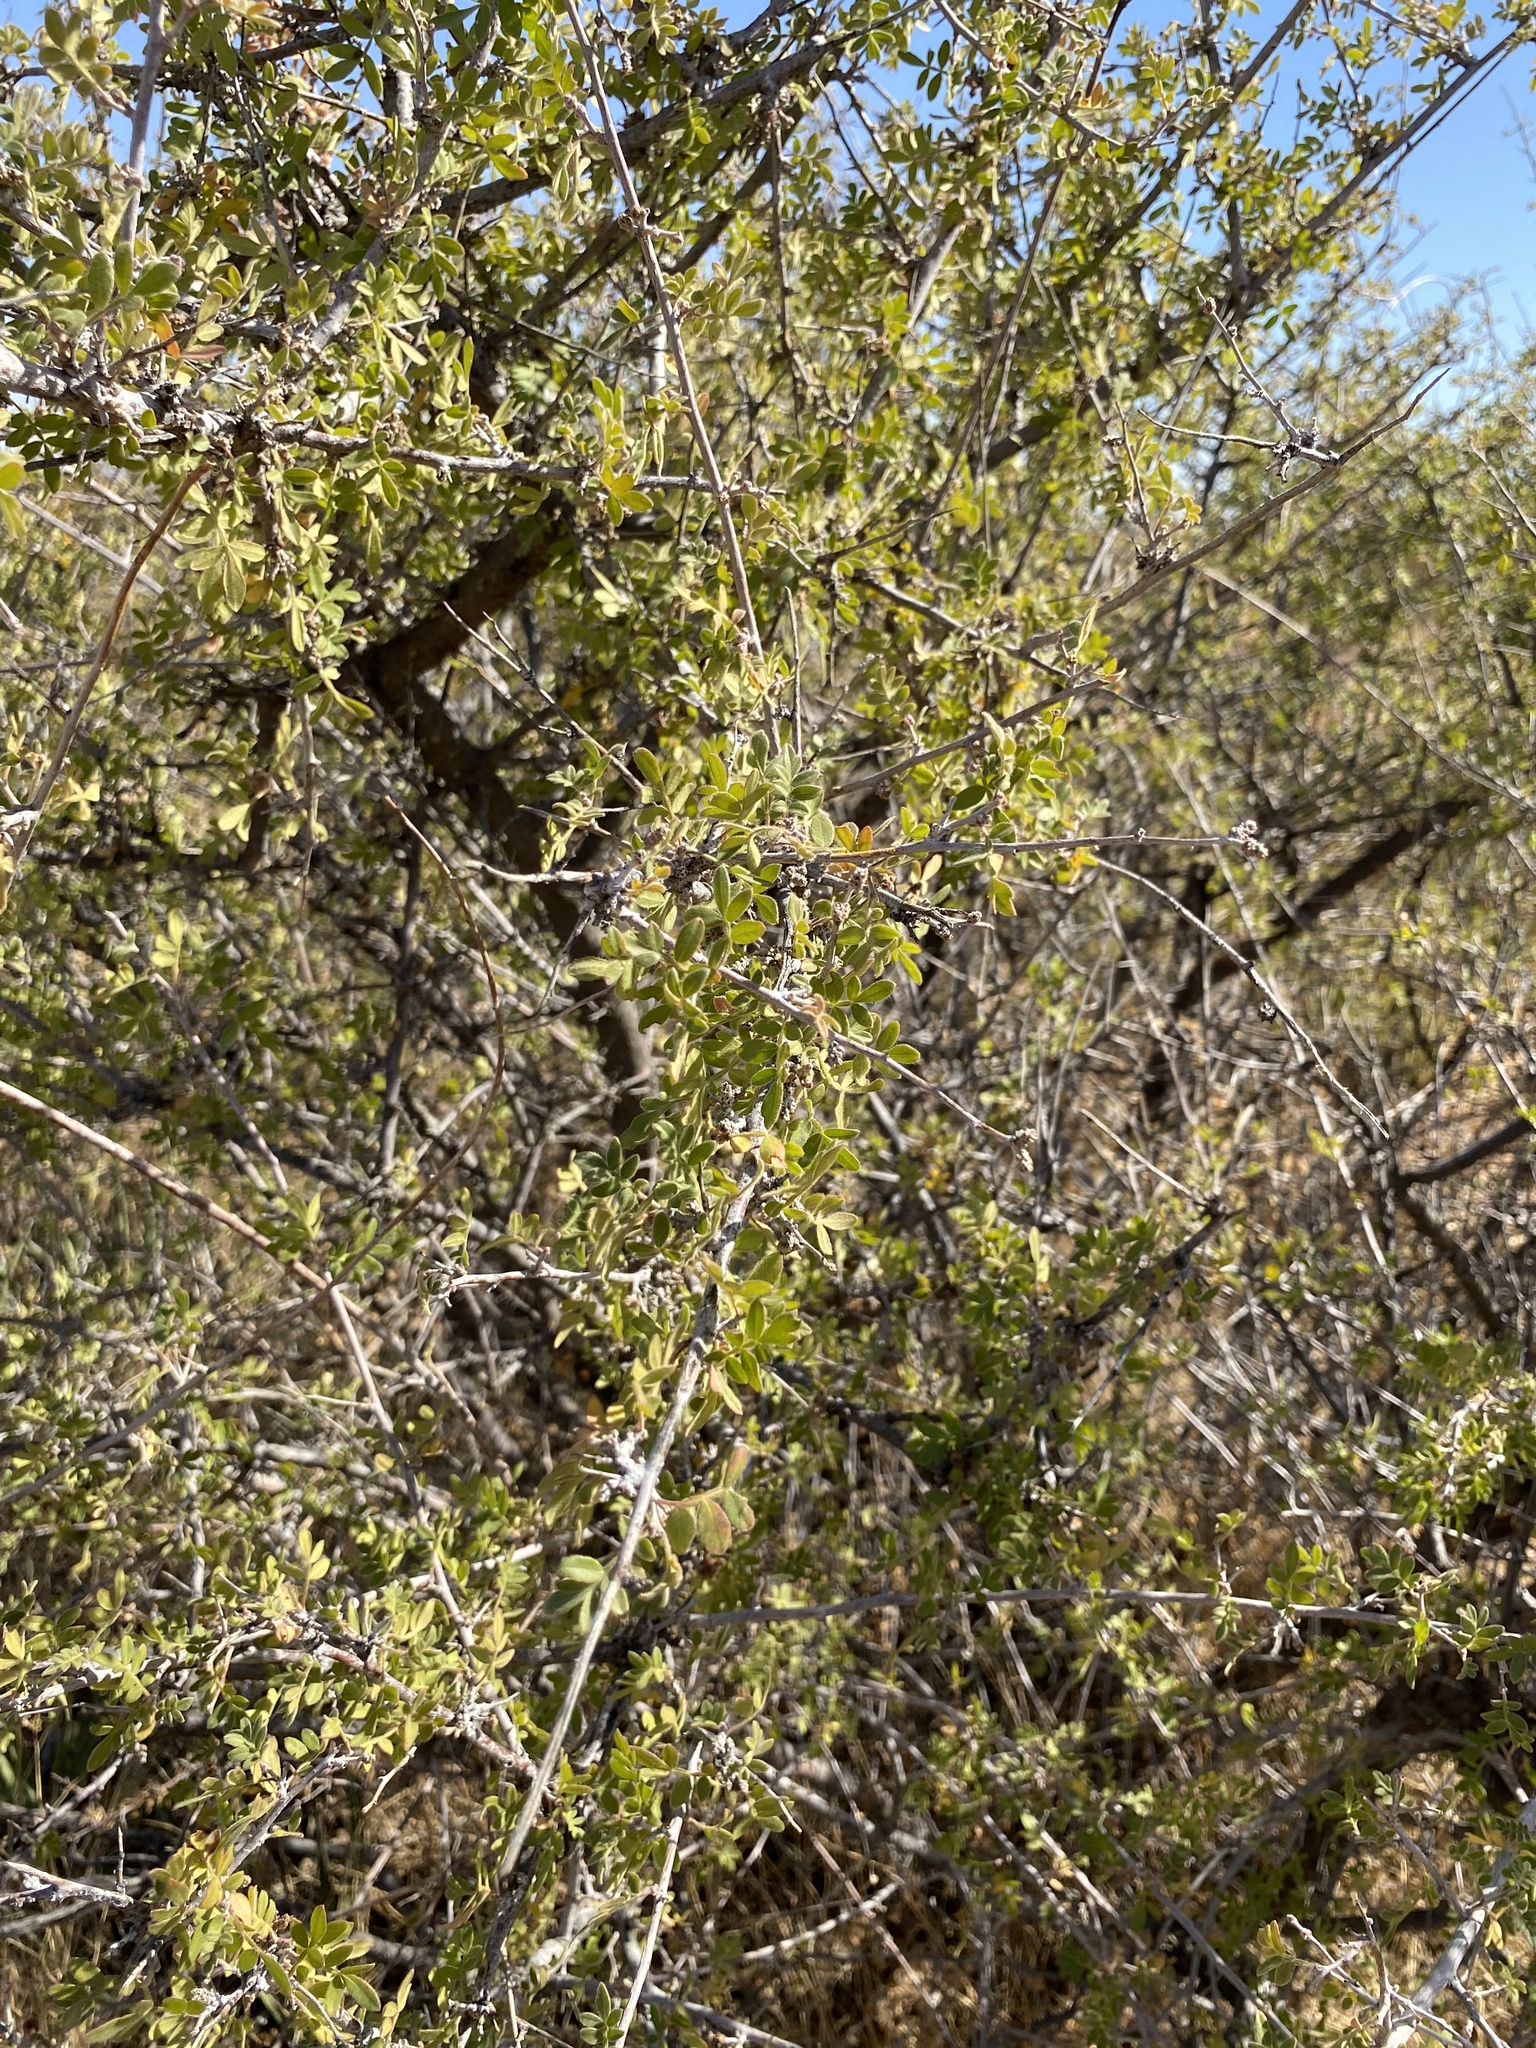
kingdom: Plantae
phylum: Tracheophyta
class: Magnoliopsida
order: Sapindales
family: Anacardiaceae
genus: Rhus
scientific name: Rhus microphylla
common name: Desert sumac
